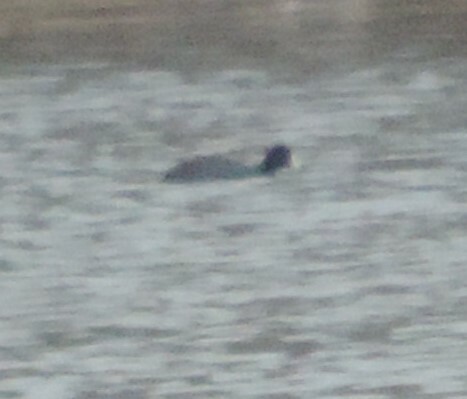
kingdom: Animalia
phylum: Chordata
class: Aves
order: Gruiformes
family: Rallidae
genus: Fulica
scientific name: Fulica americana
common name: American coot
